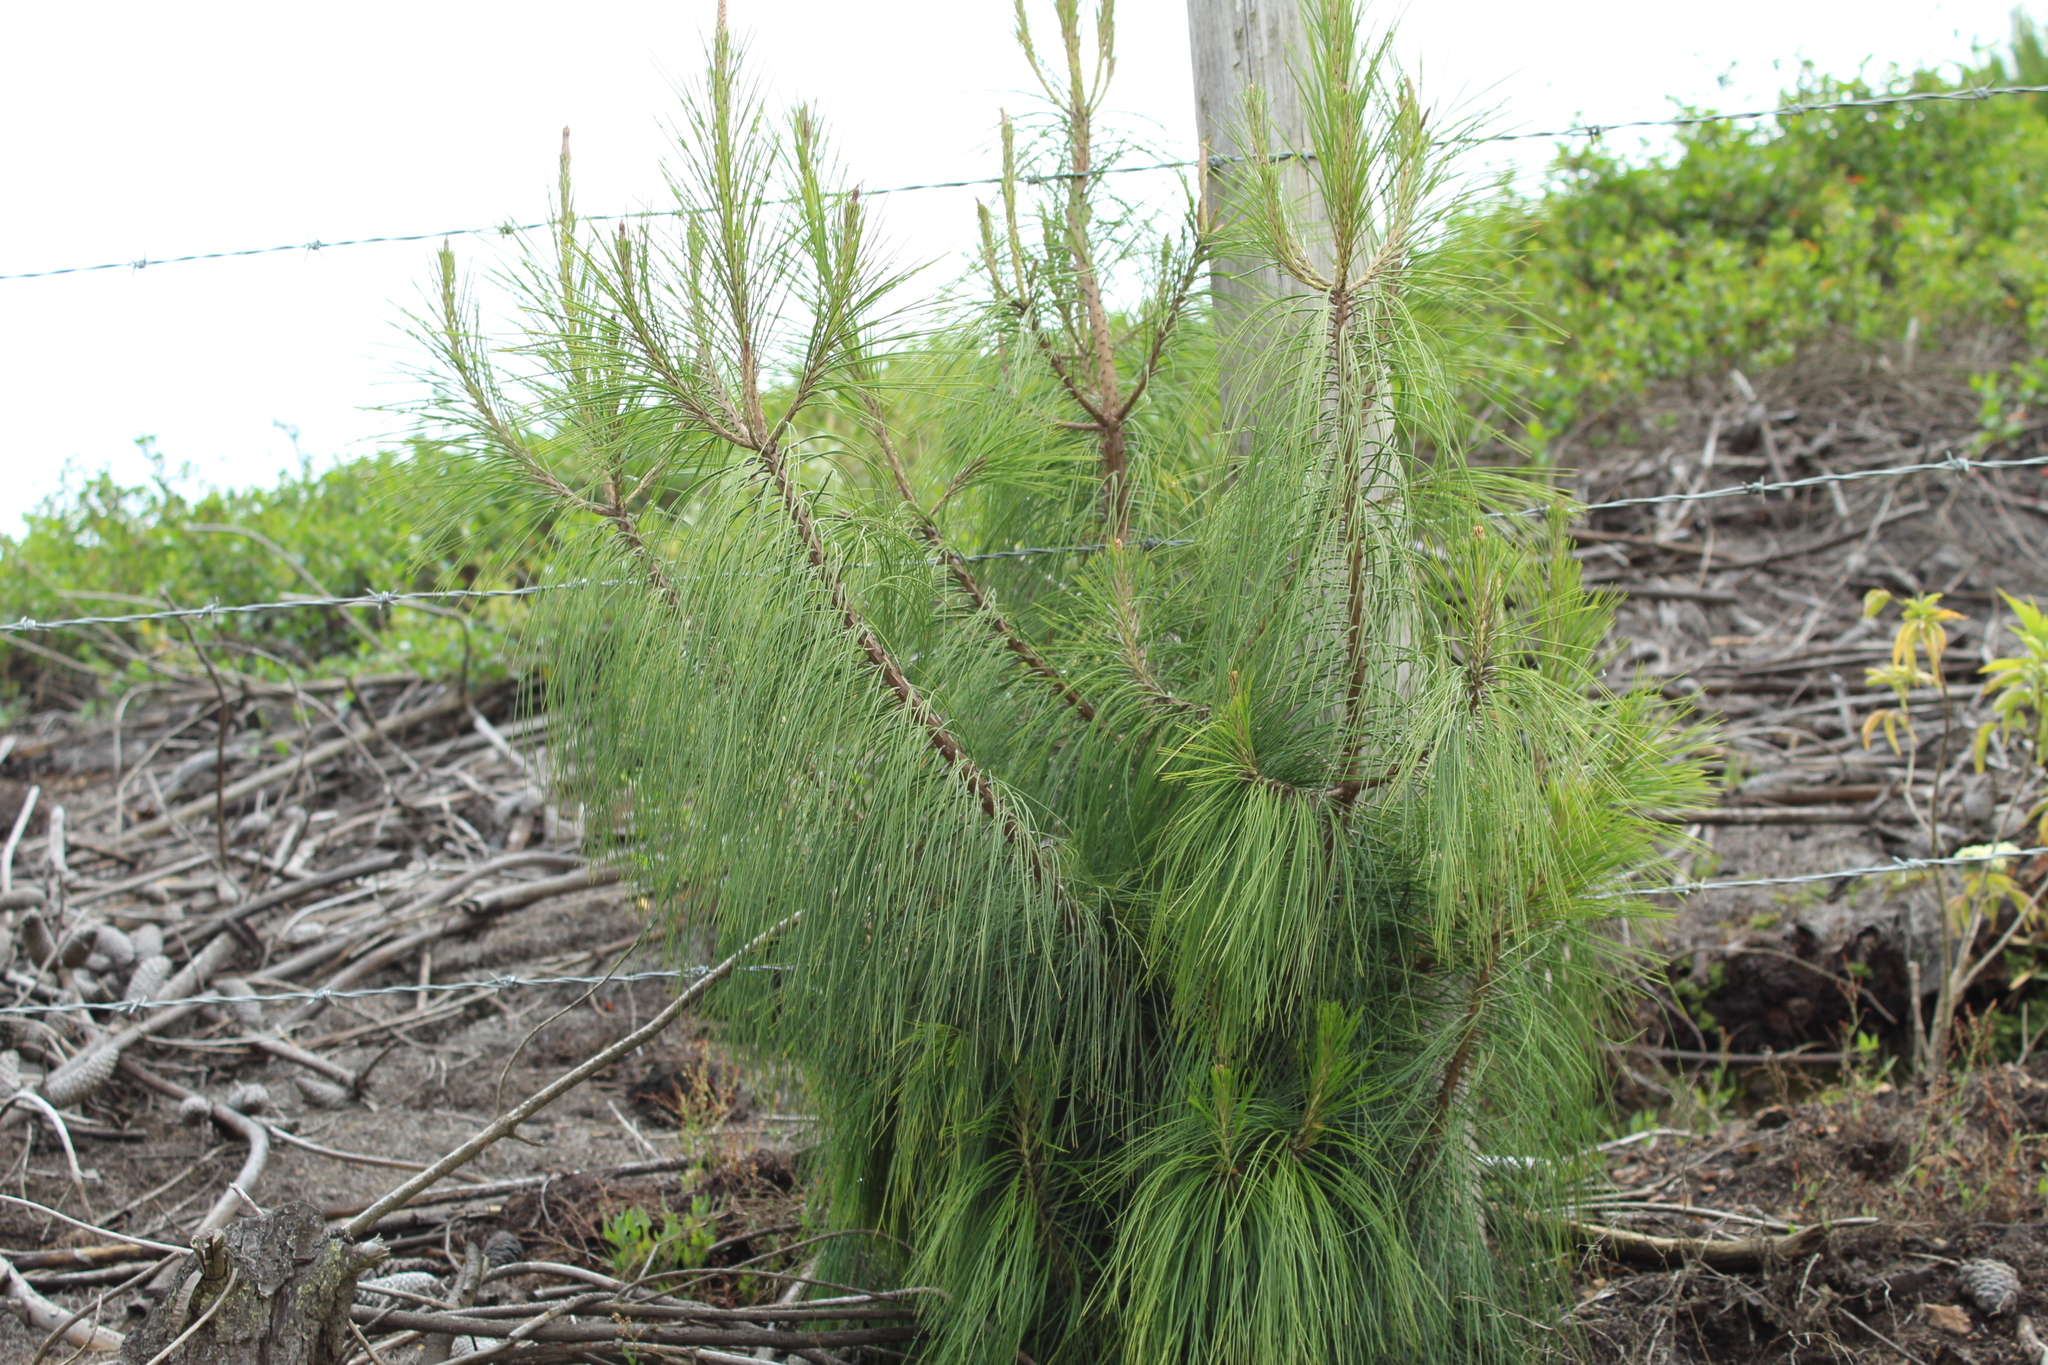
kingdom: Plantae
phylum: Tracheophyta
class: Pinopsida
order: Pinales
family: Pinaceae
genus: Pinus
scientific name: Pinus patula
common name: Mexican weeping pine
